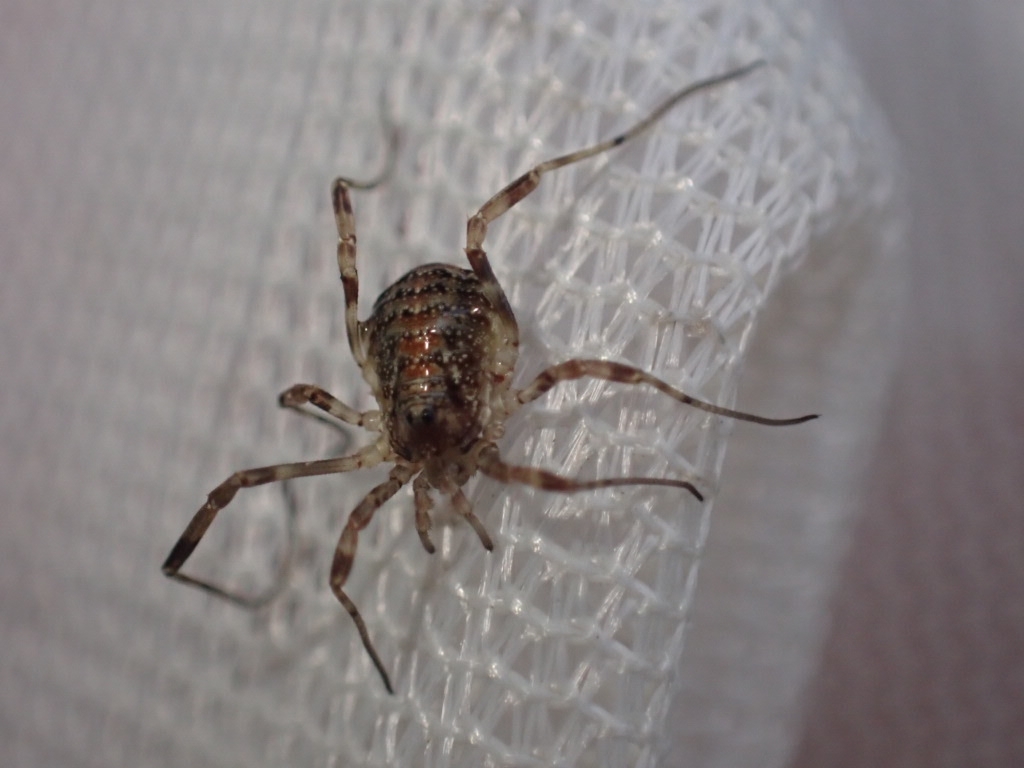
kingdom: Animalia
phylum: Arthropoda
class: Arachnida
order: Opiliones
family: Phalangiidae
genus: Paroligolophus
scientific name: Paroligolophus agrestis
